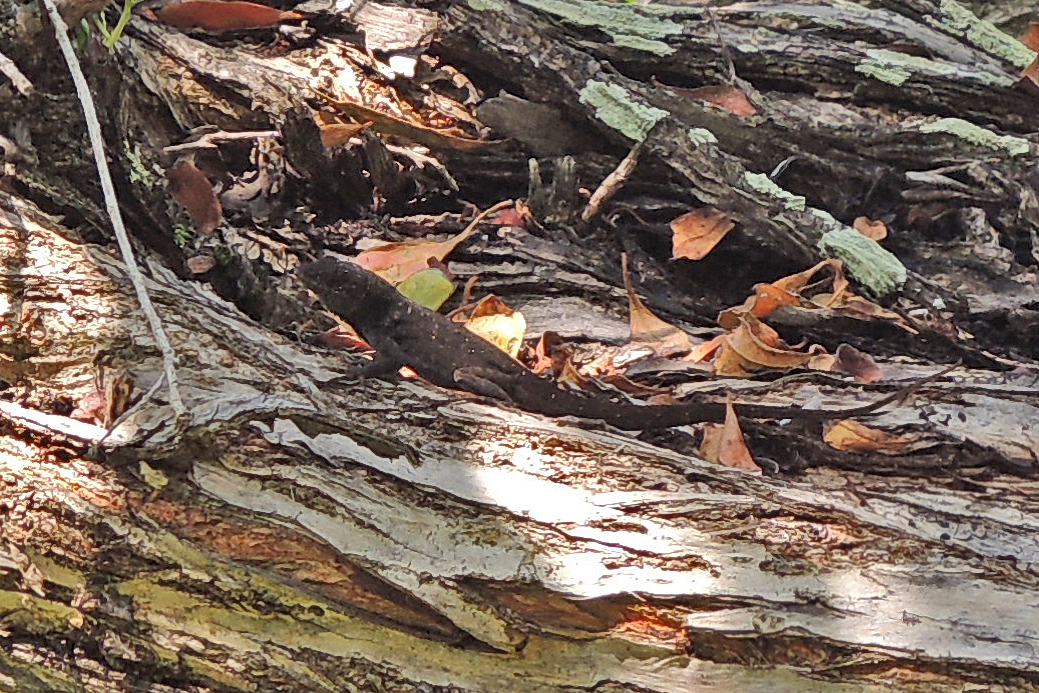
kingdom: Animalia
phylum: Chordata
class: Squamata
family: Dactyloidae
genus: Anolis
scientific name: Anolis sagrei
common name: Brown anole
